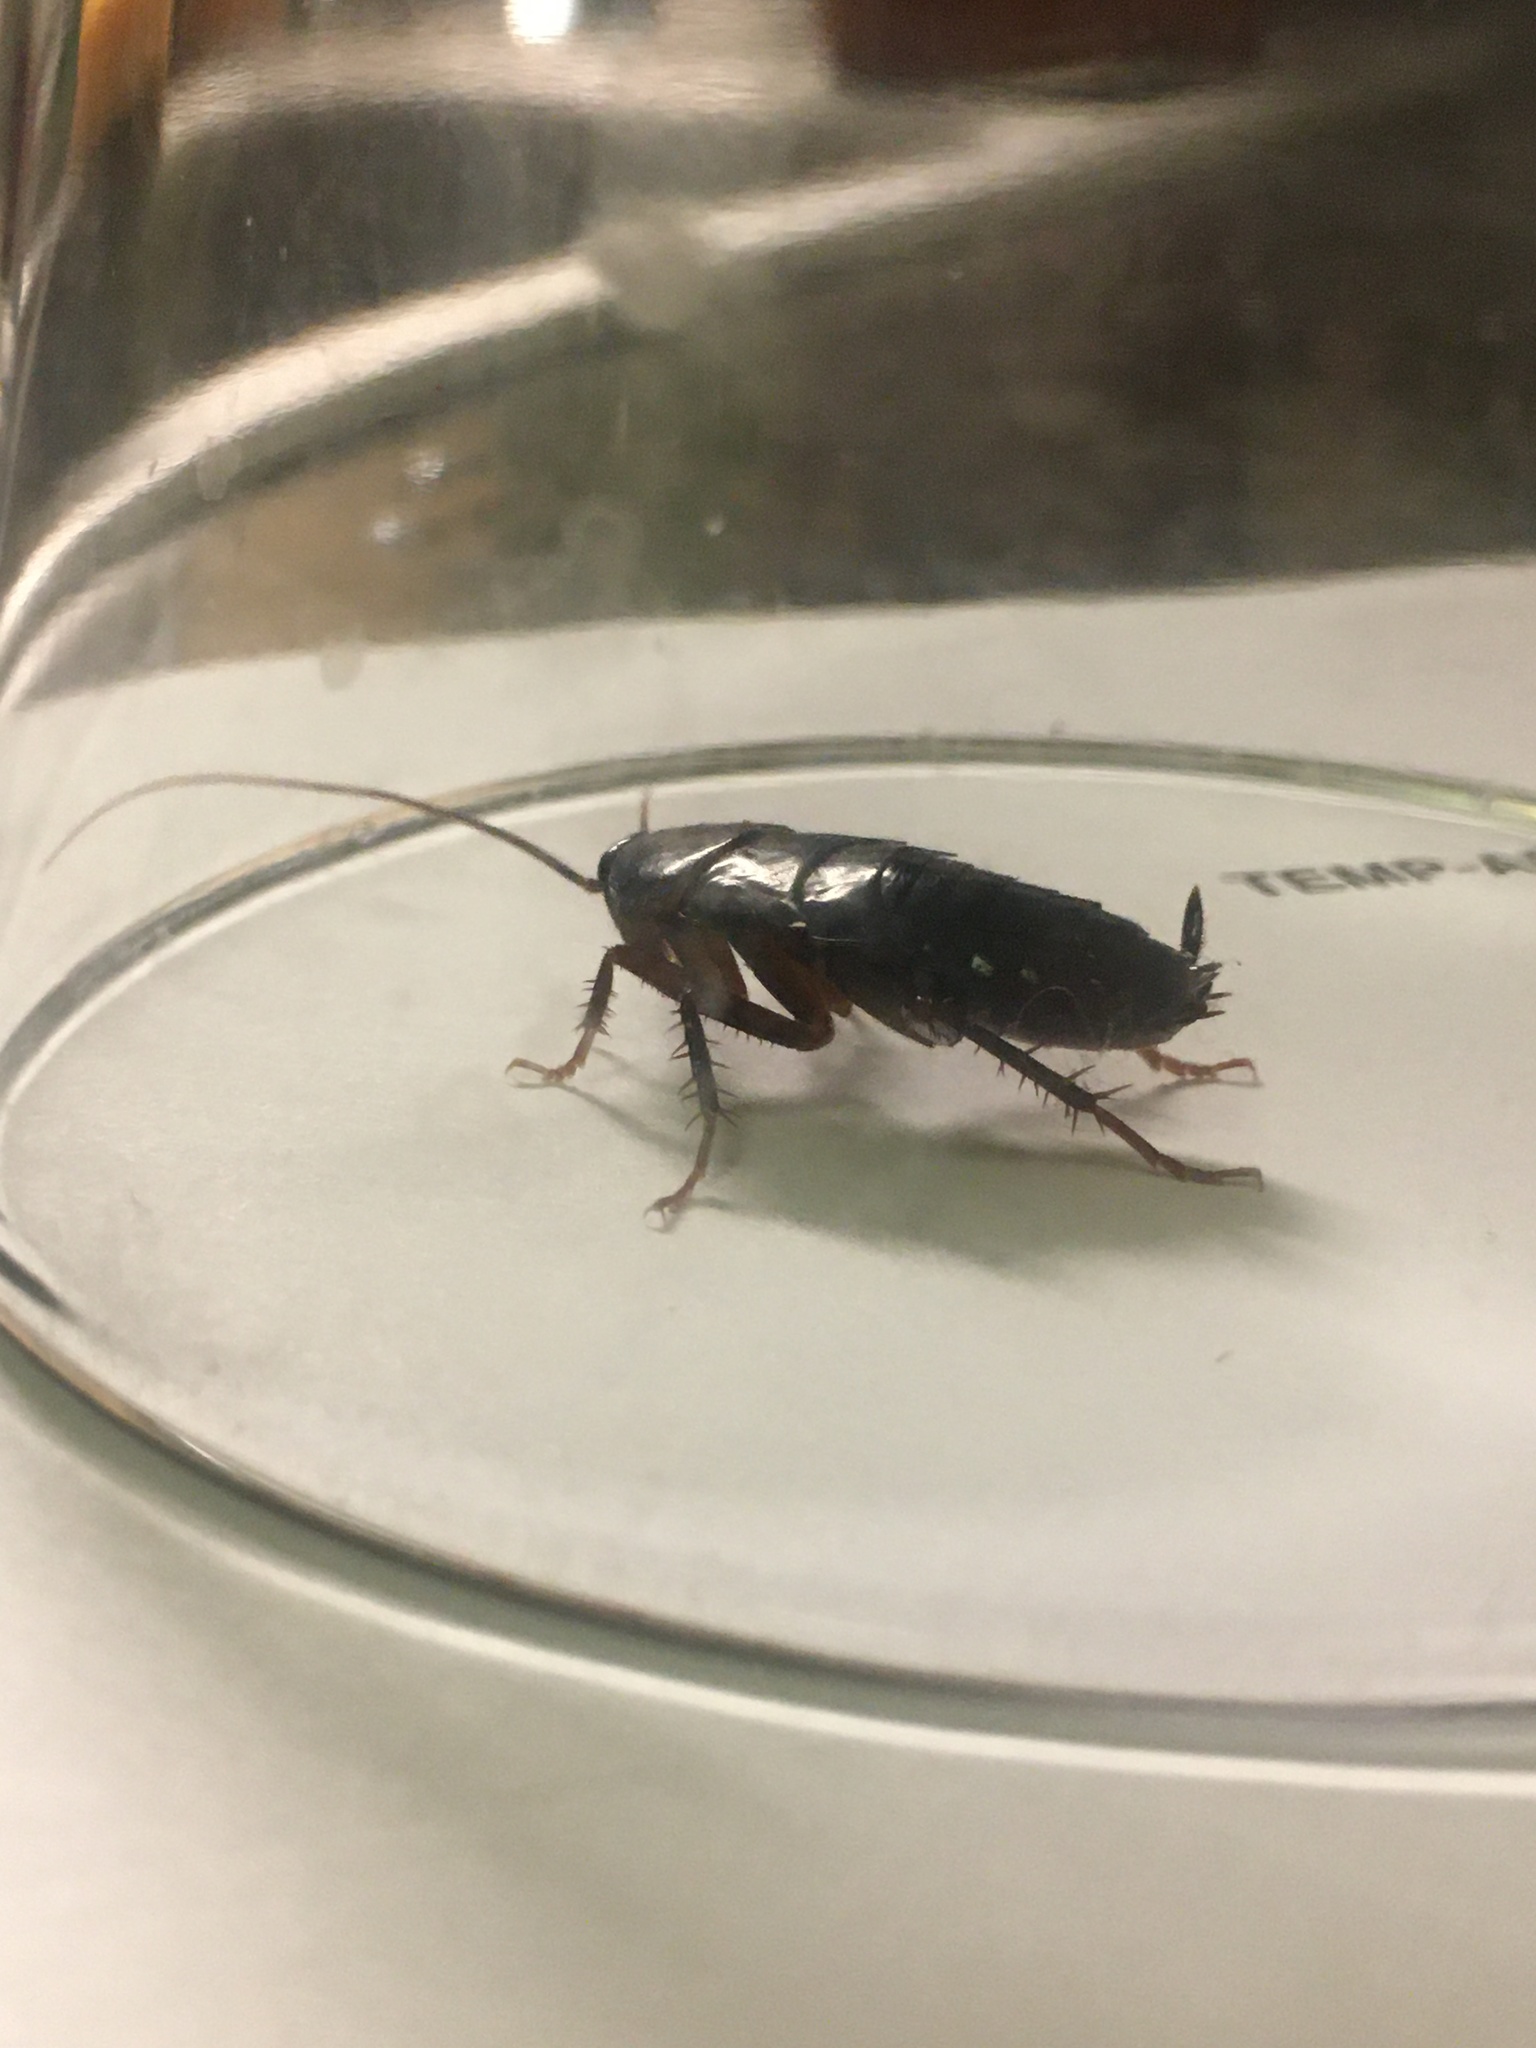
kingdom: Animalia
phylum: Arthropoda
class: Insecta
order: Blattodea
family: Blattidae
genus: Blatta
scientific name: Blatta orientalis
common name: Oriental cockroach
